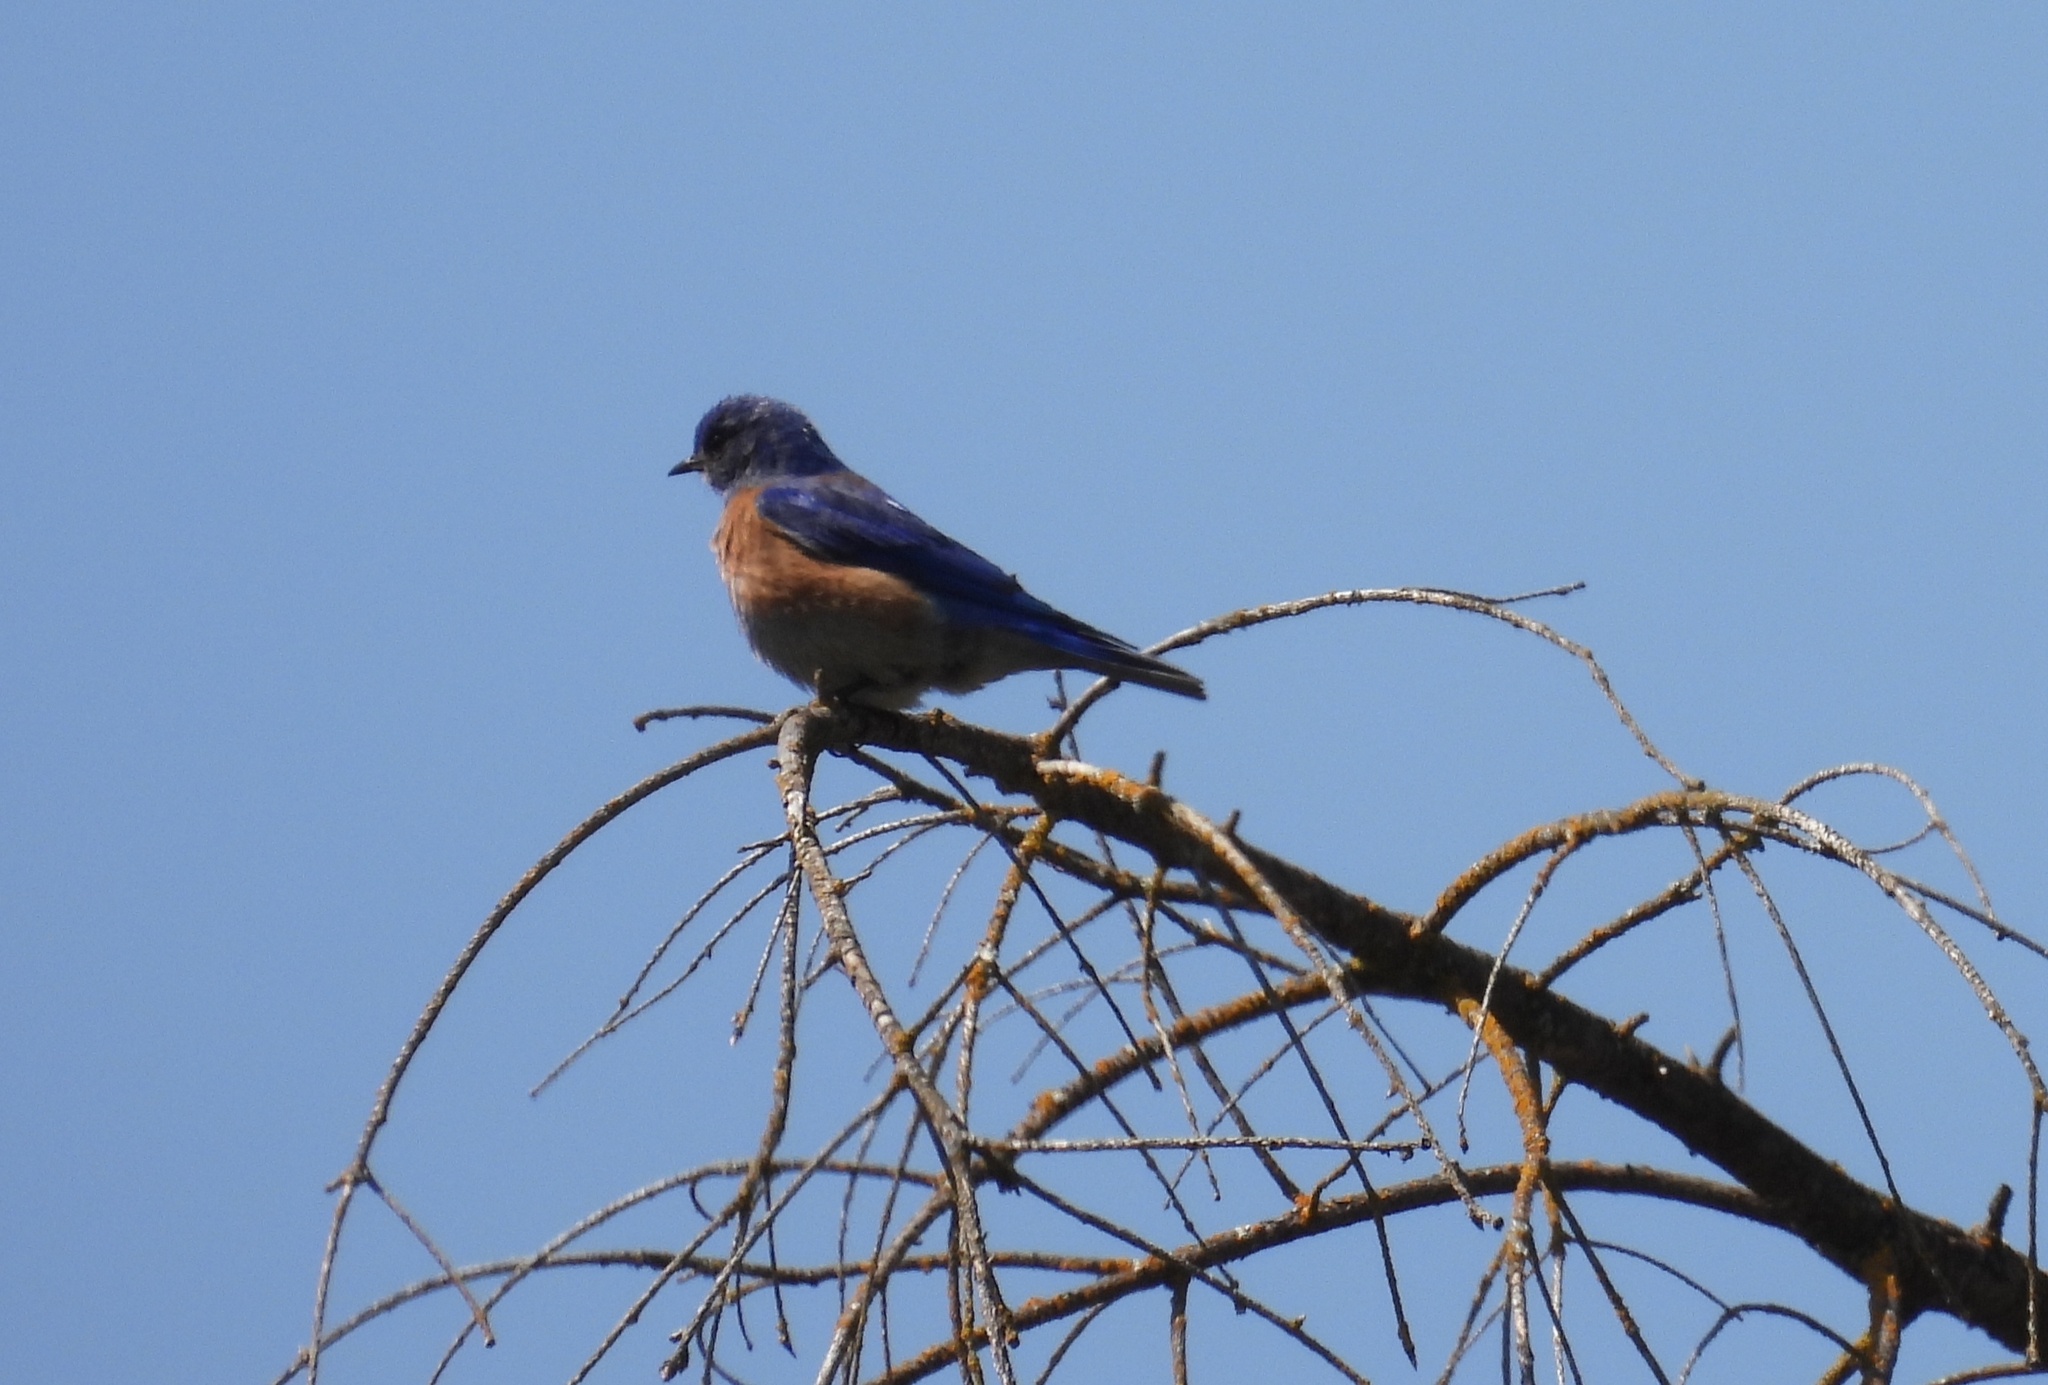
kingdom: Animalia
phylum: Chordata
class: Aves
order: Passeriformes
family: Turdidae
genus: Sialia
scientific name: Sialia mexicana
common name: Western bluebird
